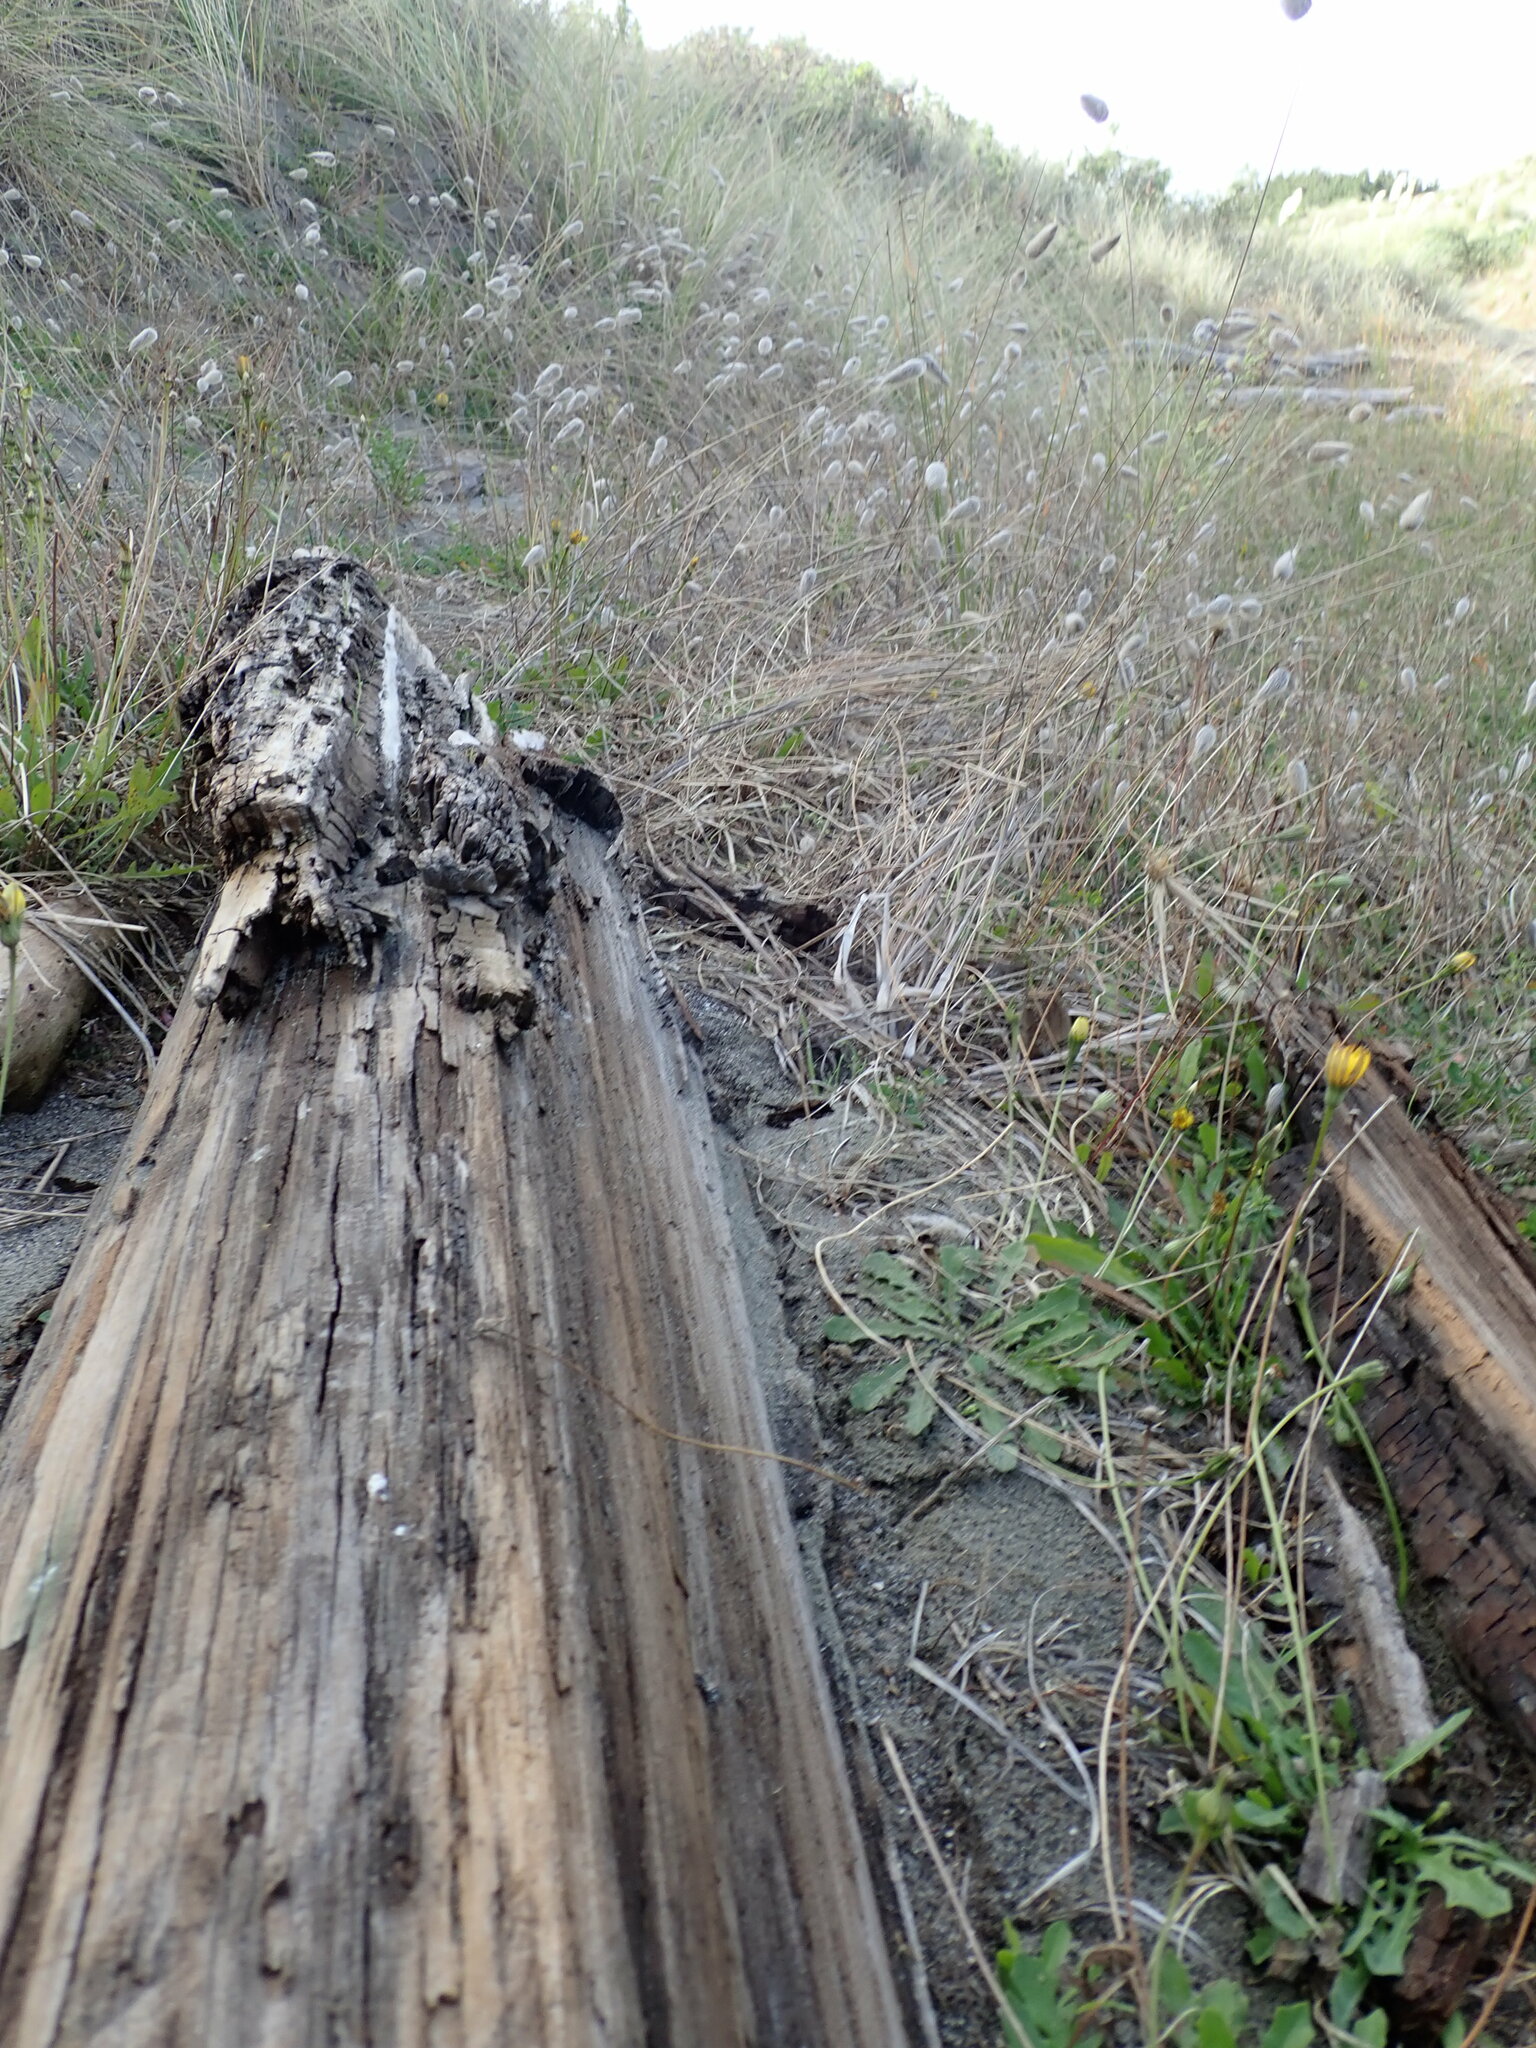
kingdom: Animalia
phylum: Arthropoda
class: Malacostraca
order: Isopoda
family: Porcellionidae
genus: Porcellio
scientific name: Porcellio scaber
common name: Common rough woodlouse
